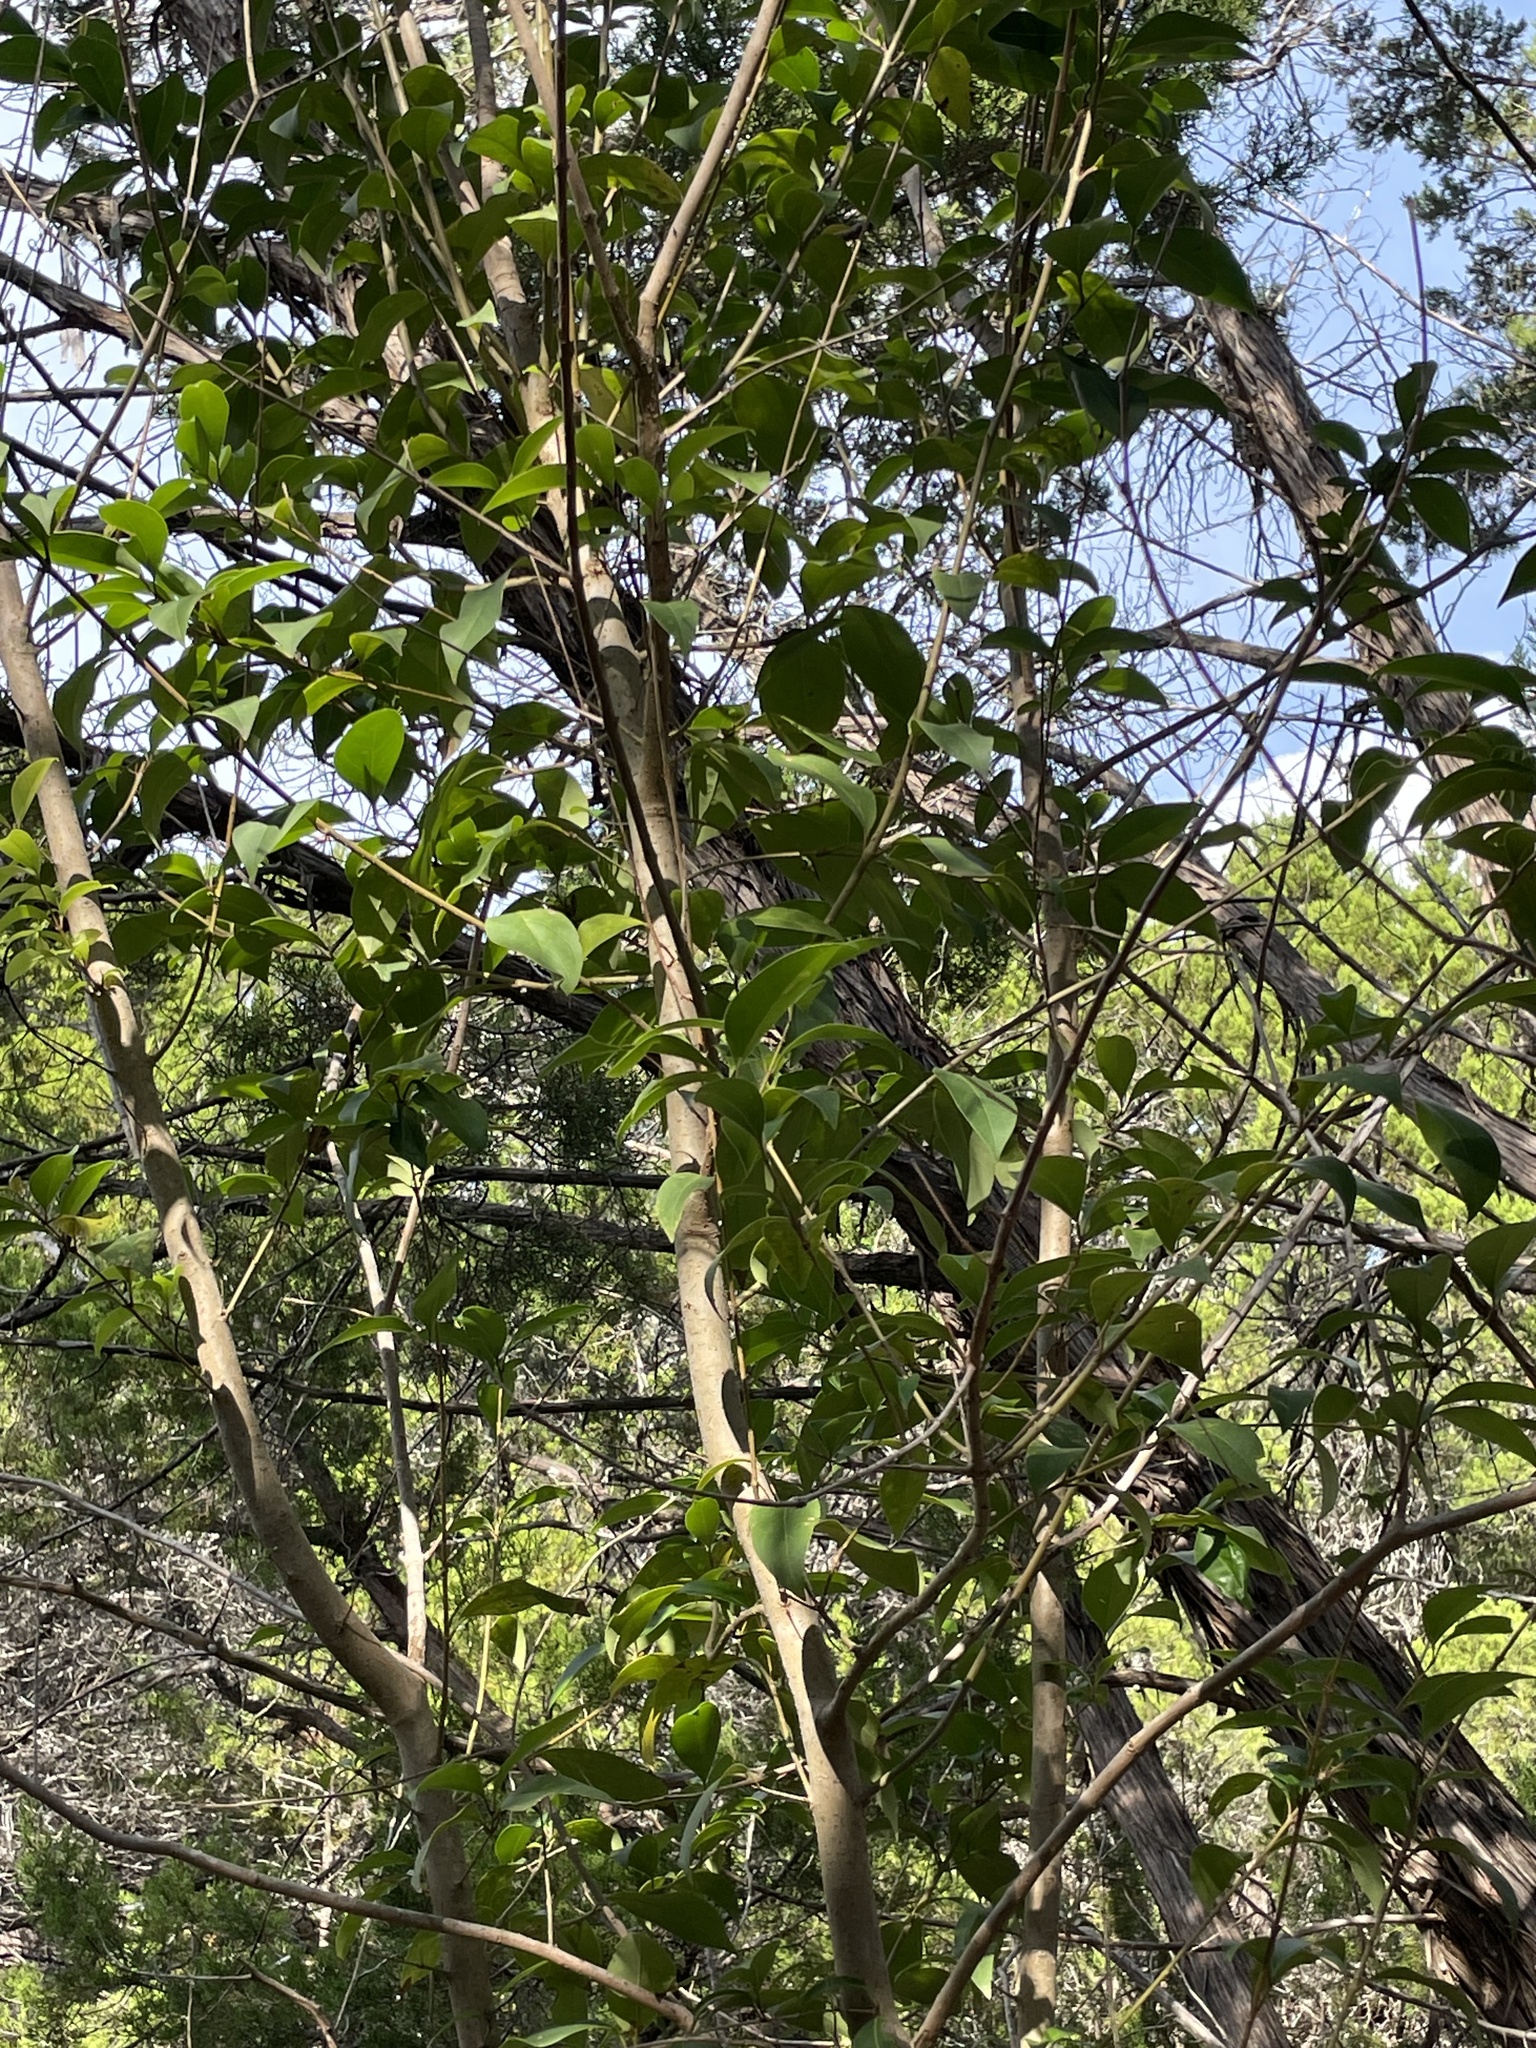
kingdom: Plantae
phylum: Tracheophyta
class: Magnoliopsida
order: Lamiales
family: Oleaceae
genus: Ligustrum
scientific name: Ligustrum lucidum
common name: Glossy privet
